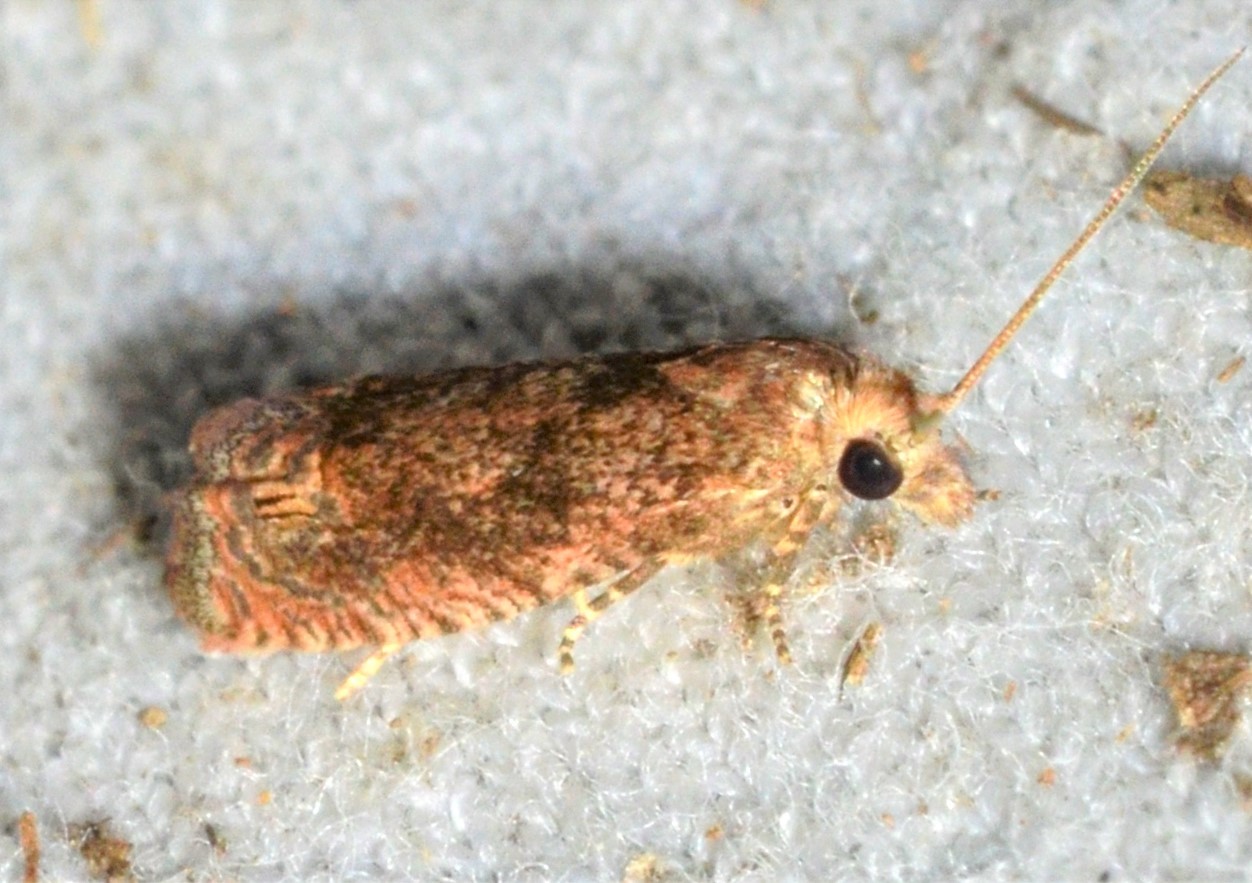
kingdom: Animalia
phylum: Arthropoda
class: Insecta
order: Lepidoptera
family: Tortricidae
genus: Pelochrista
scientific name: Pelochrista vagana
